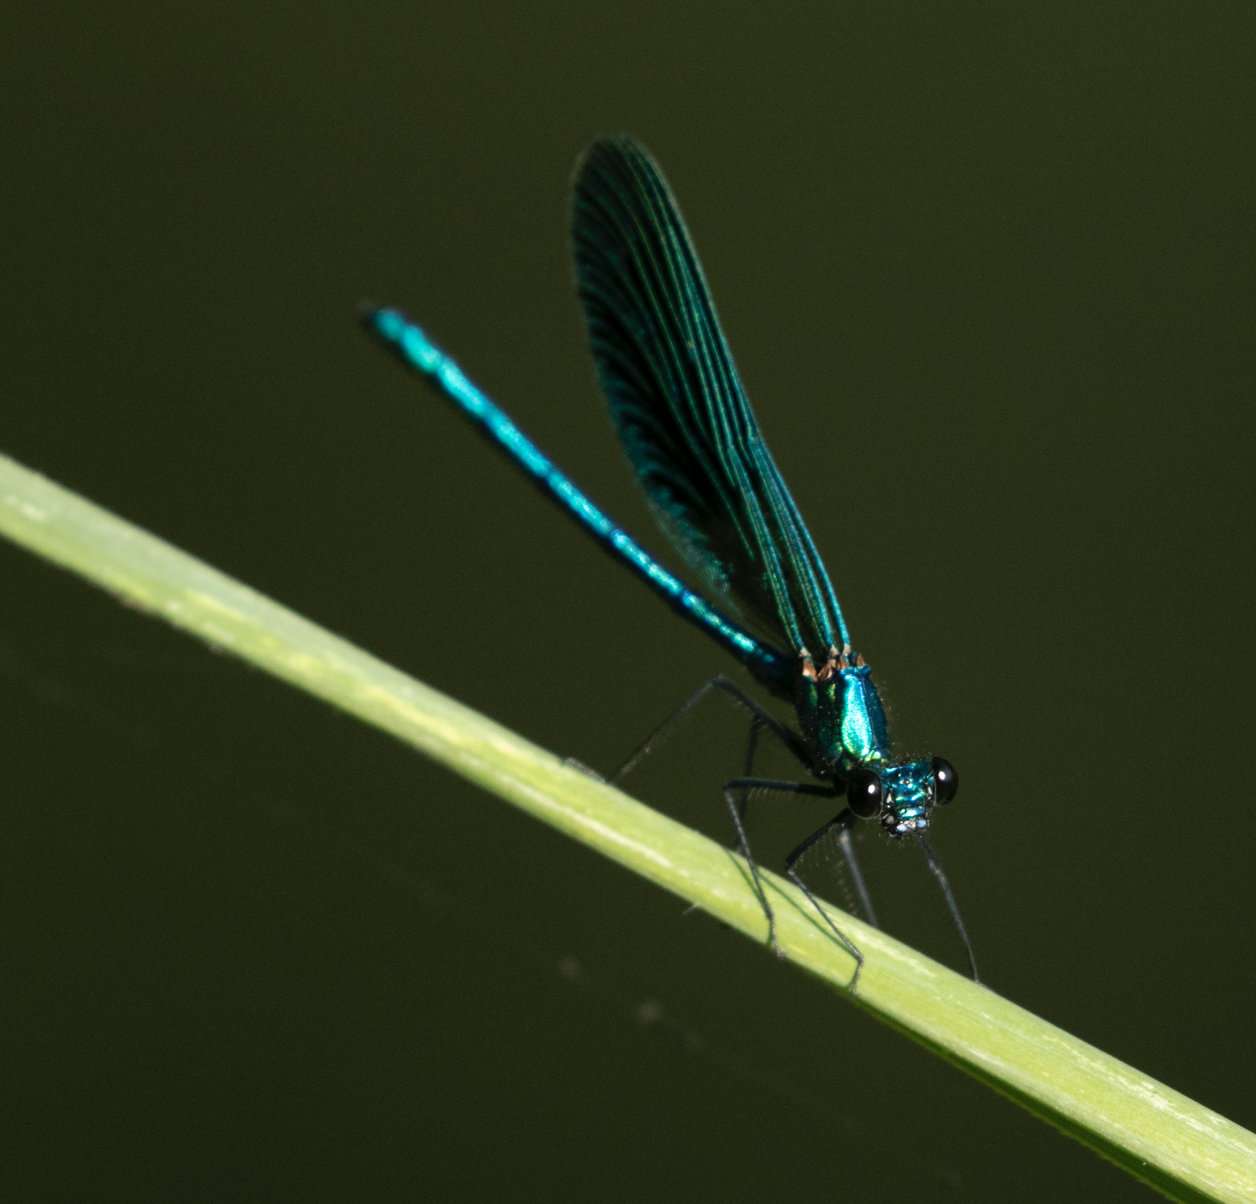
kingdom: Animalia
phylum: Arthropoda
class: Insecta
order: Odonata
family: Calopterygidae
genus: Calopteryx
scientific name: Calopteryx splendens
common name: Banded demoiselle
